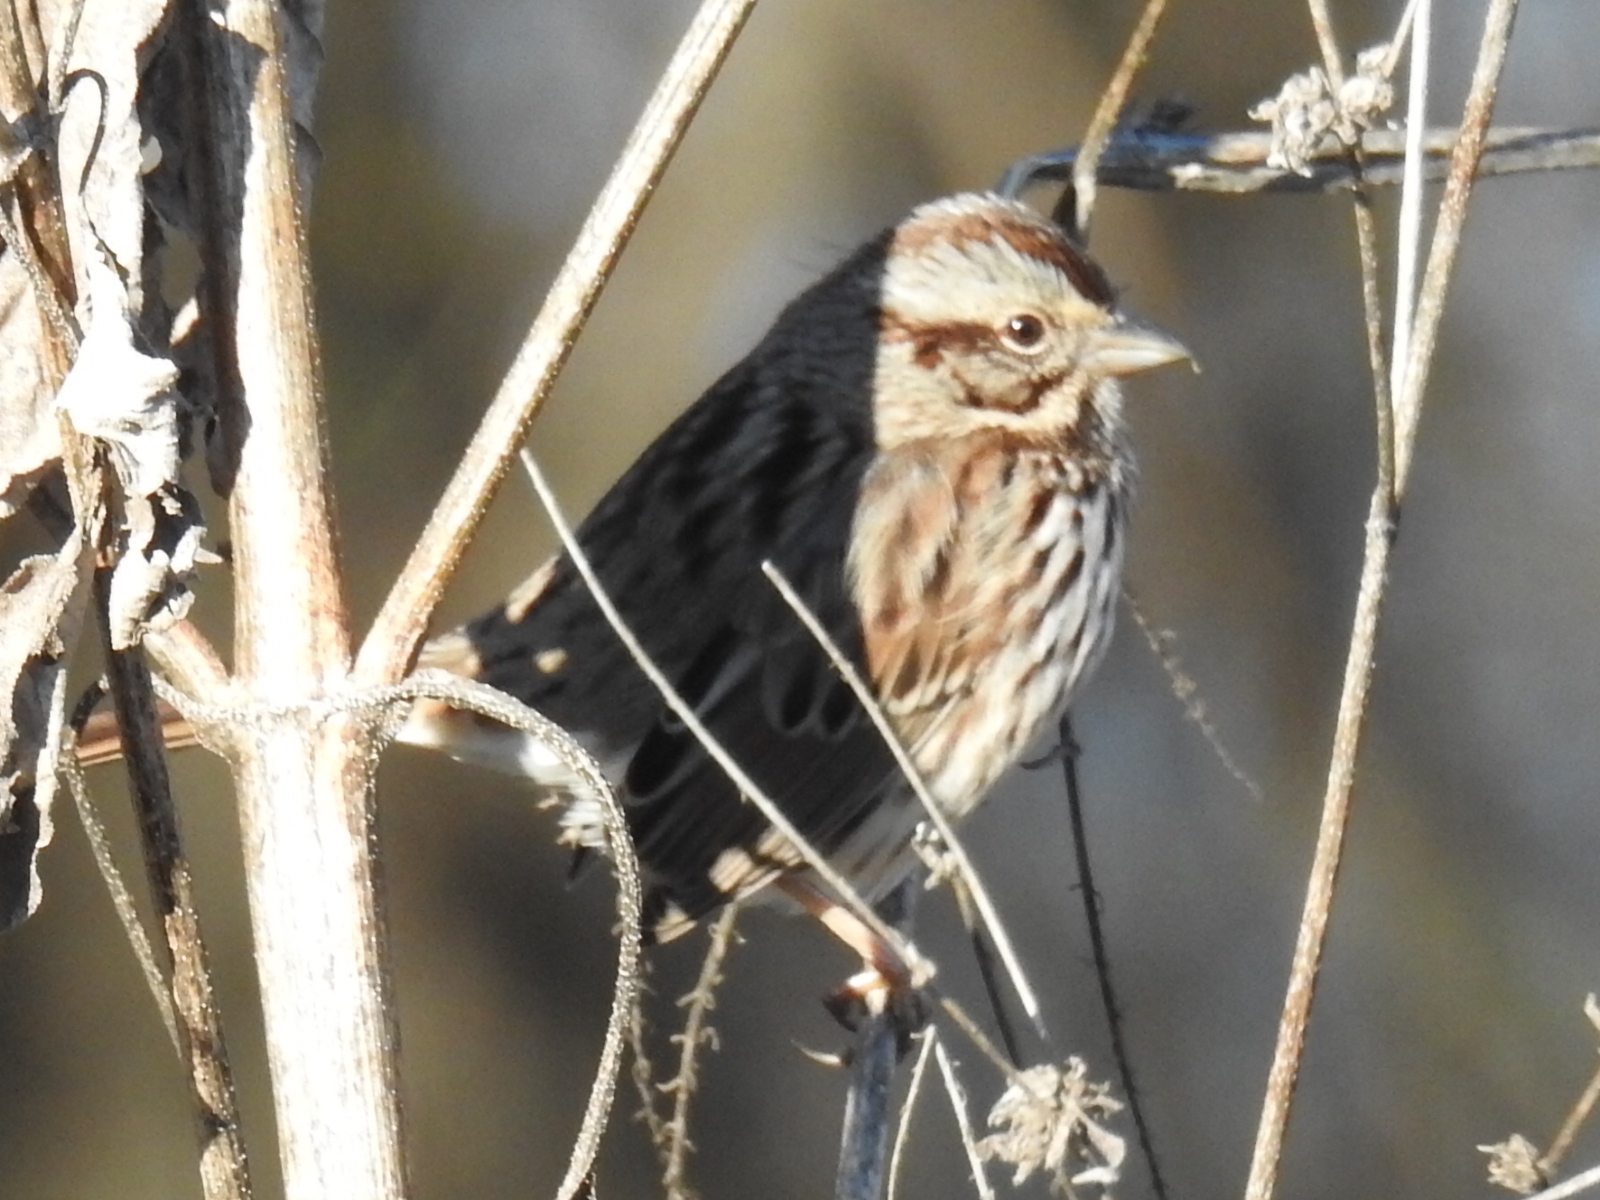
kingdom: Animalia
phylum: Chordata
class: Aves
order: Passeriformes
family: Passerellidae
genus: Melospiza
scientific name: Melospiza melodia
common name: Song sparrow
